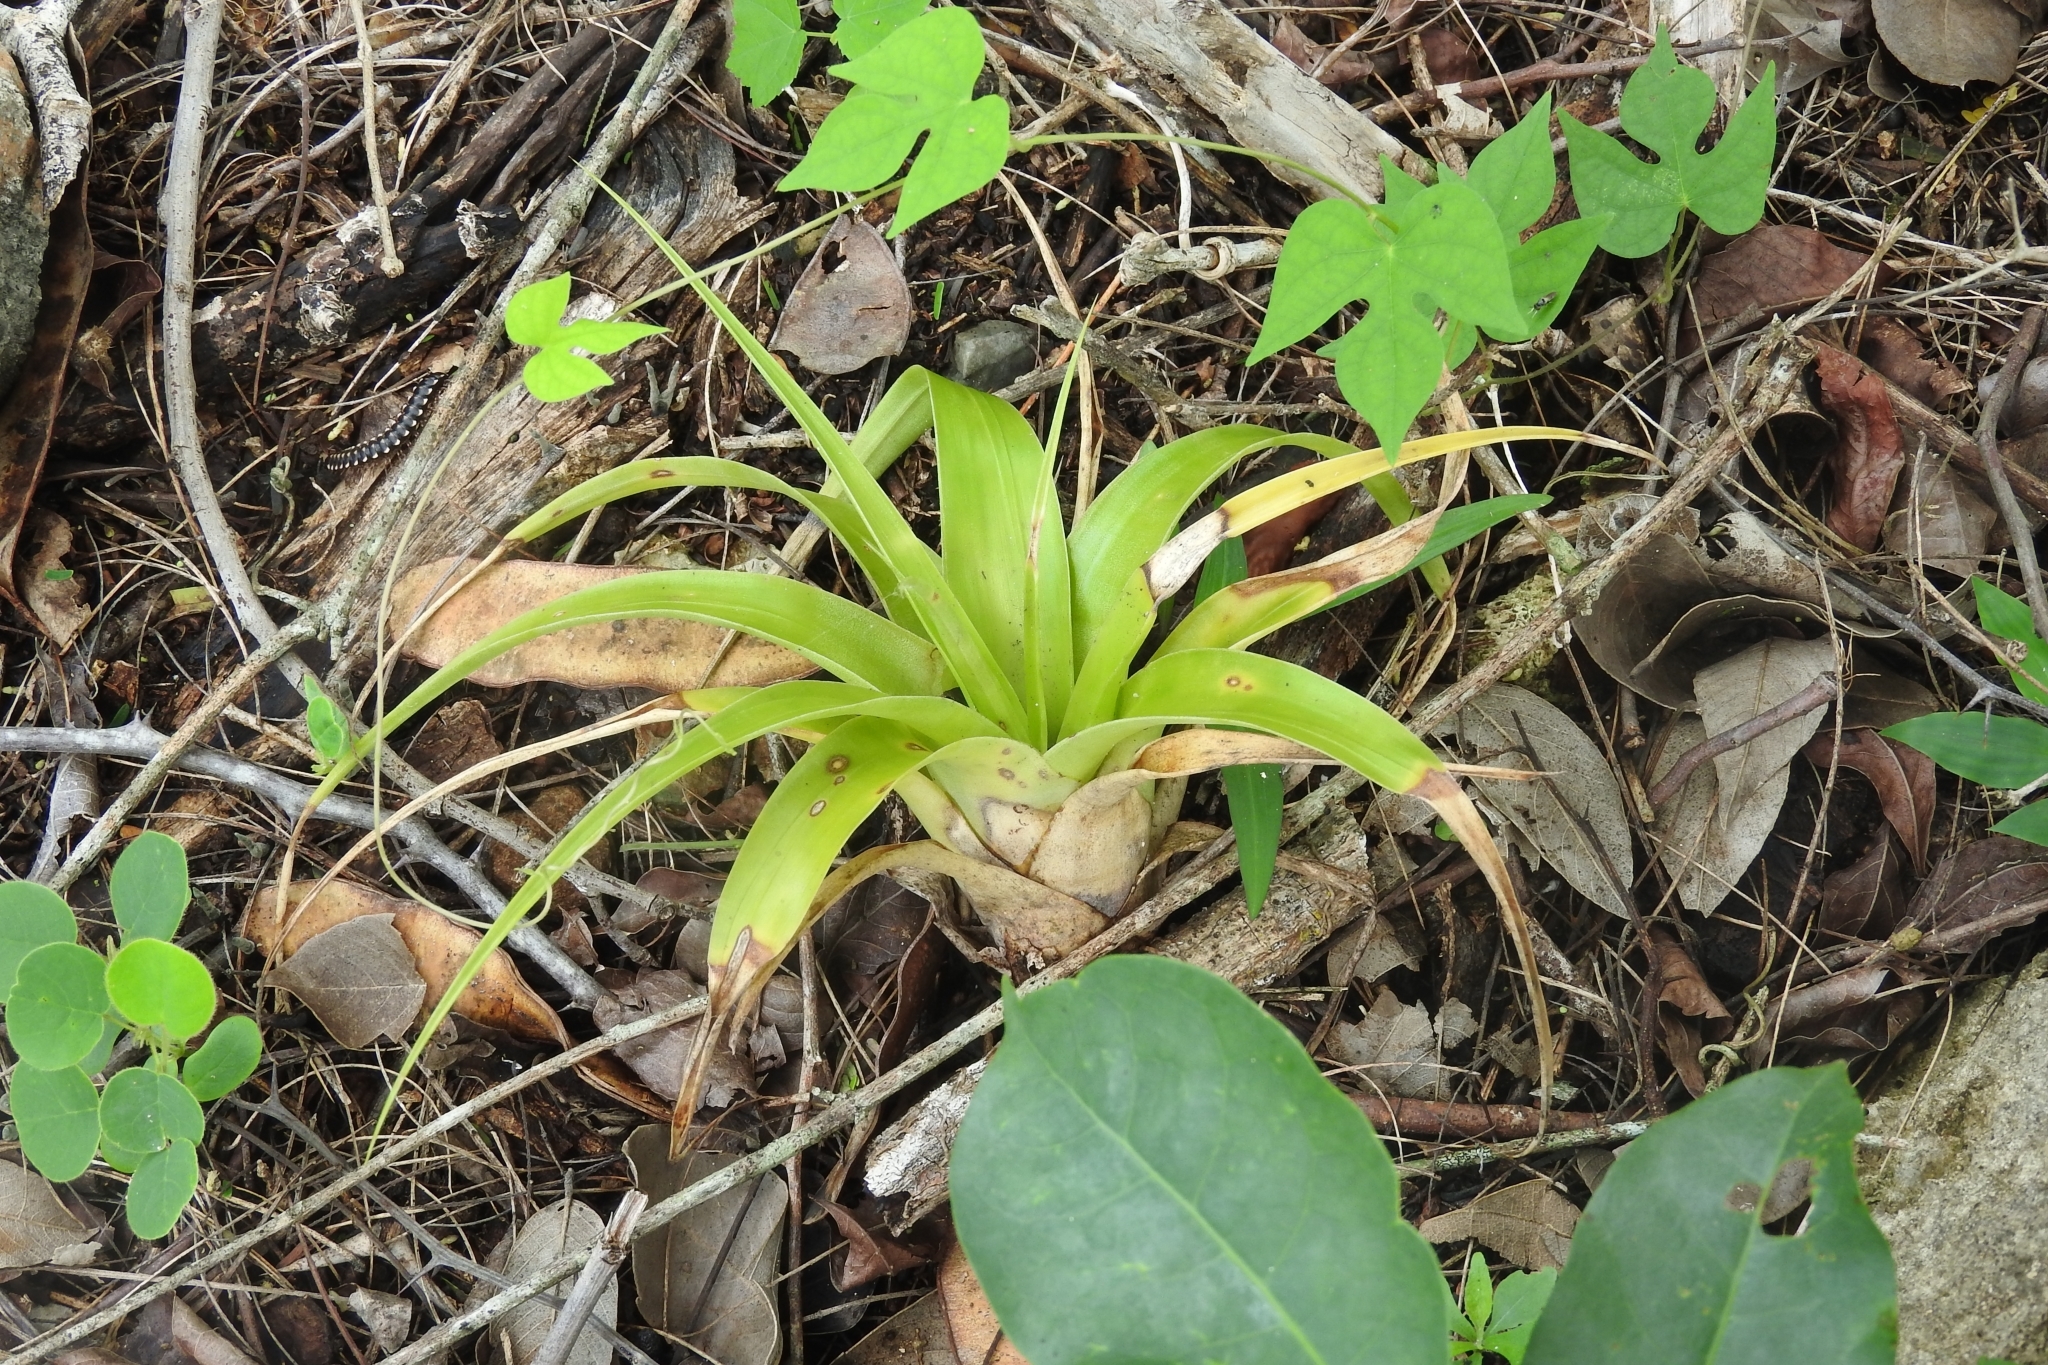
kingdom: Plantae
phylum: Tracheophyta
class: Liliopsida
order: Poales
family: Bromeliaceae
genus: Tillandsia
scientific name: Tillandsia elongata
